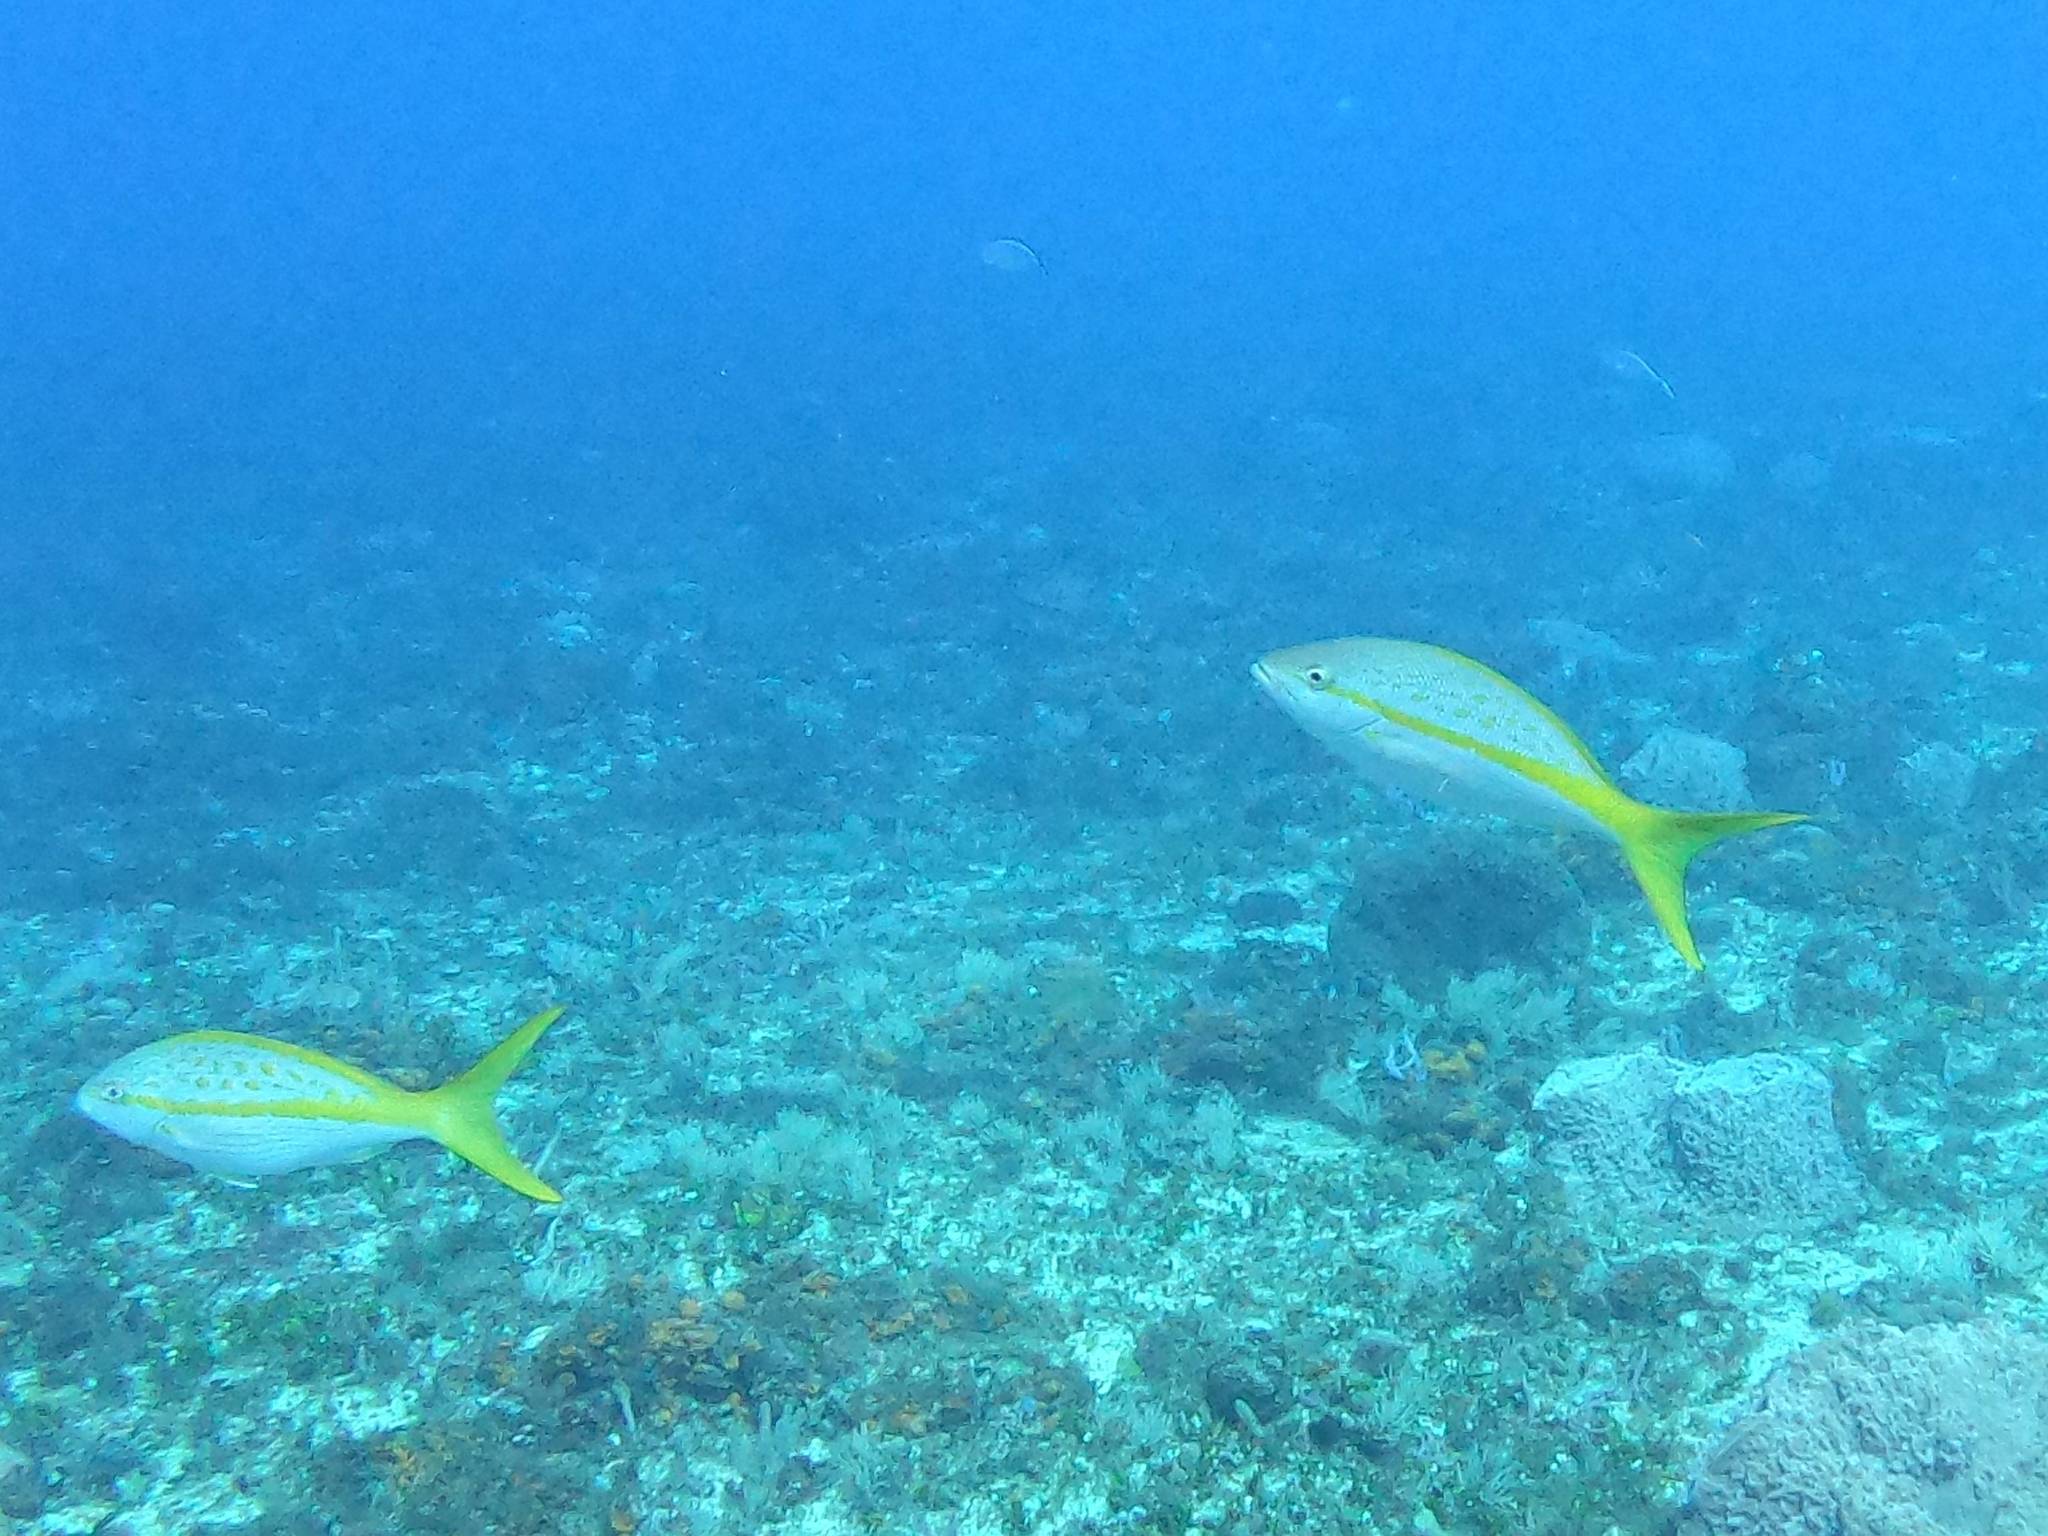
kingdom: Animalia
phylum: Chordata
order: Perciformes
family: Lutjanidae
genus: Ocyurus
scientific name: Ocyurus chrysurus
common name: Yellowtail snapper
